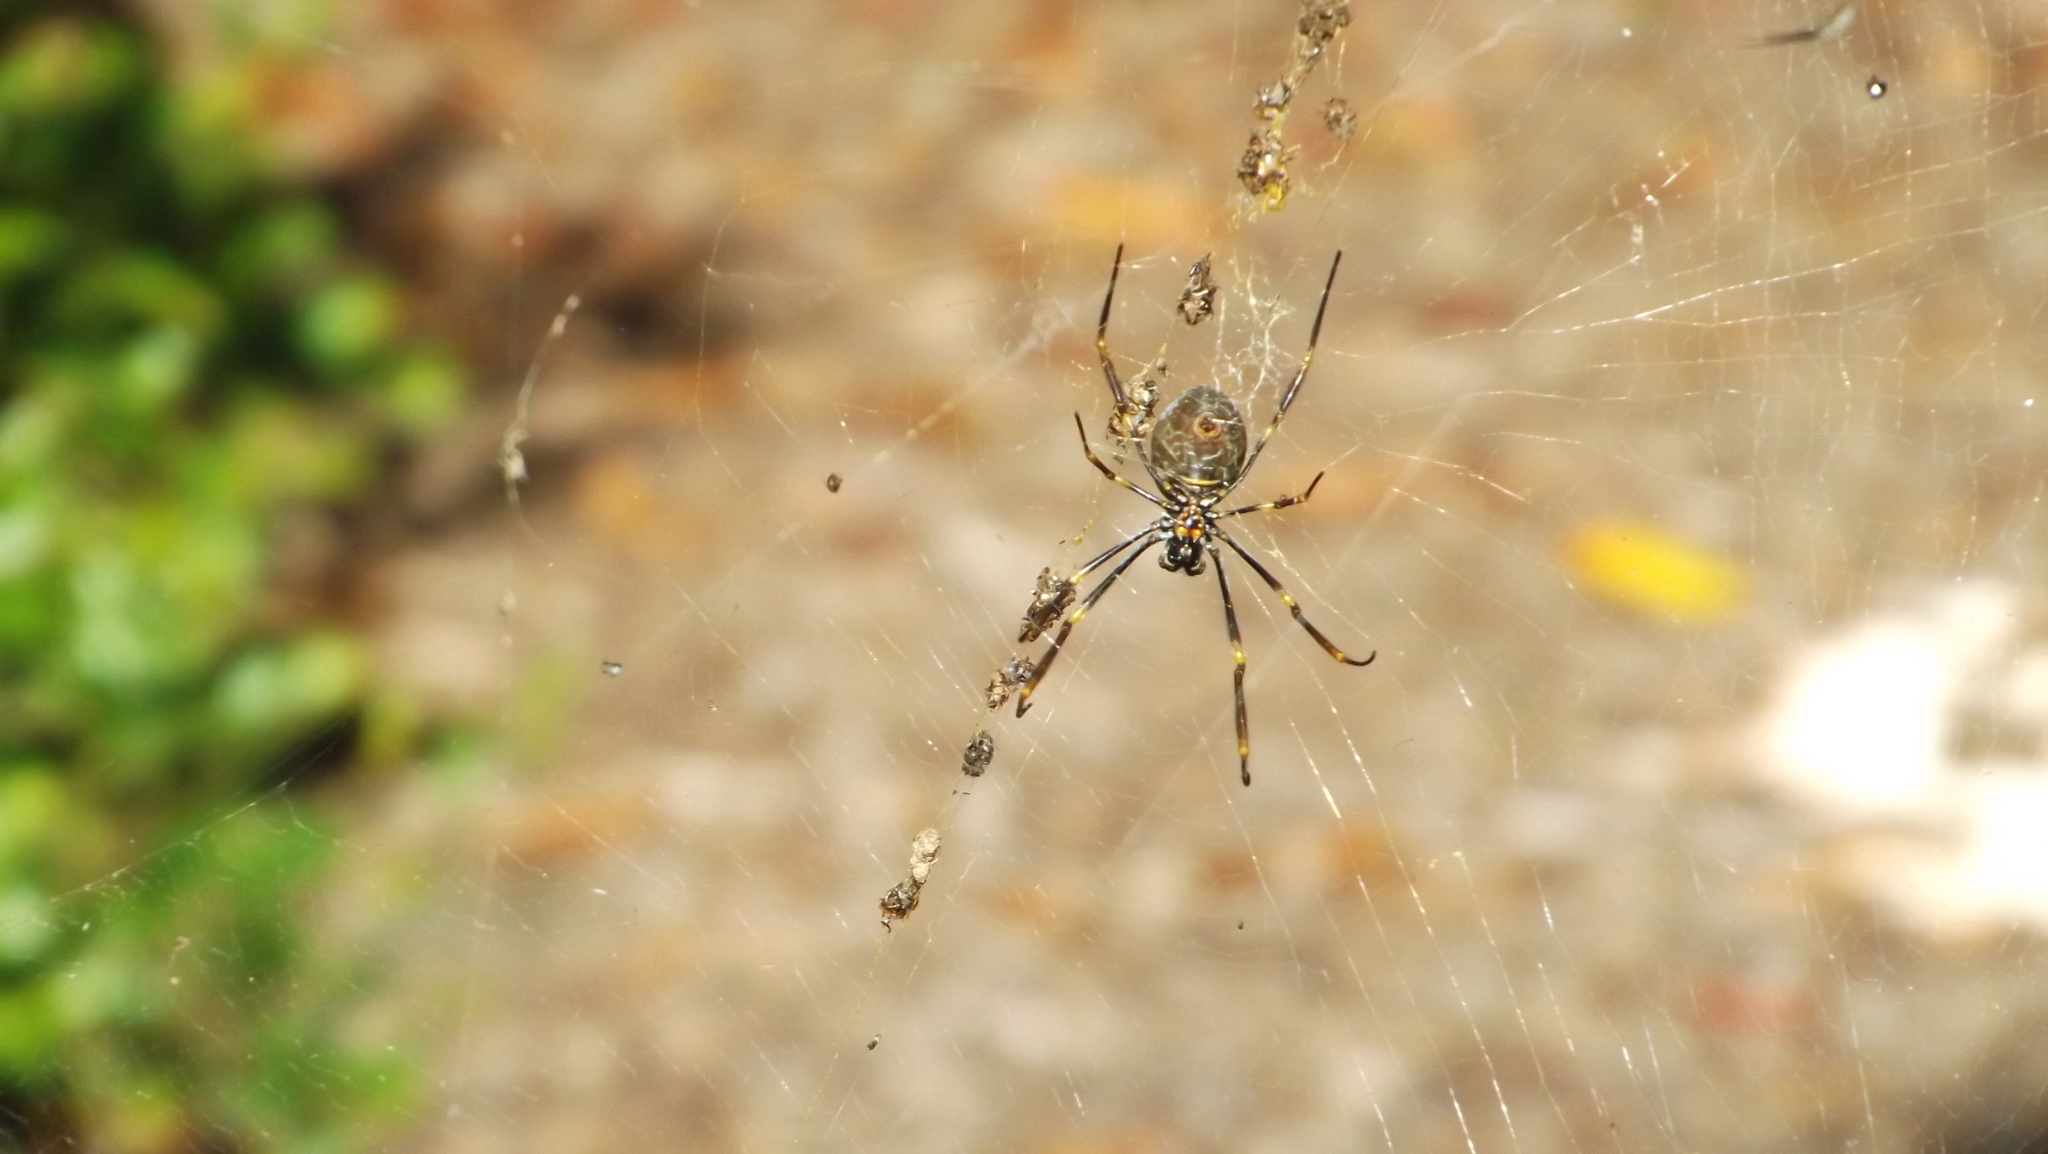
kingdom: Animalia
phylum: Arthropoda
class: Arachnida
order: Araneae
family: Araneidae
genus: Trichonephila
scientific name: Trichonephila plumipes
